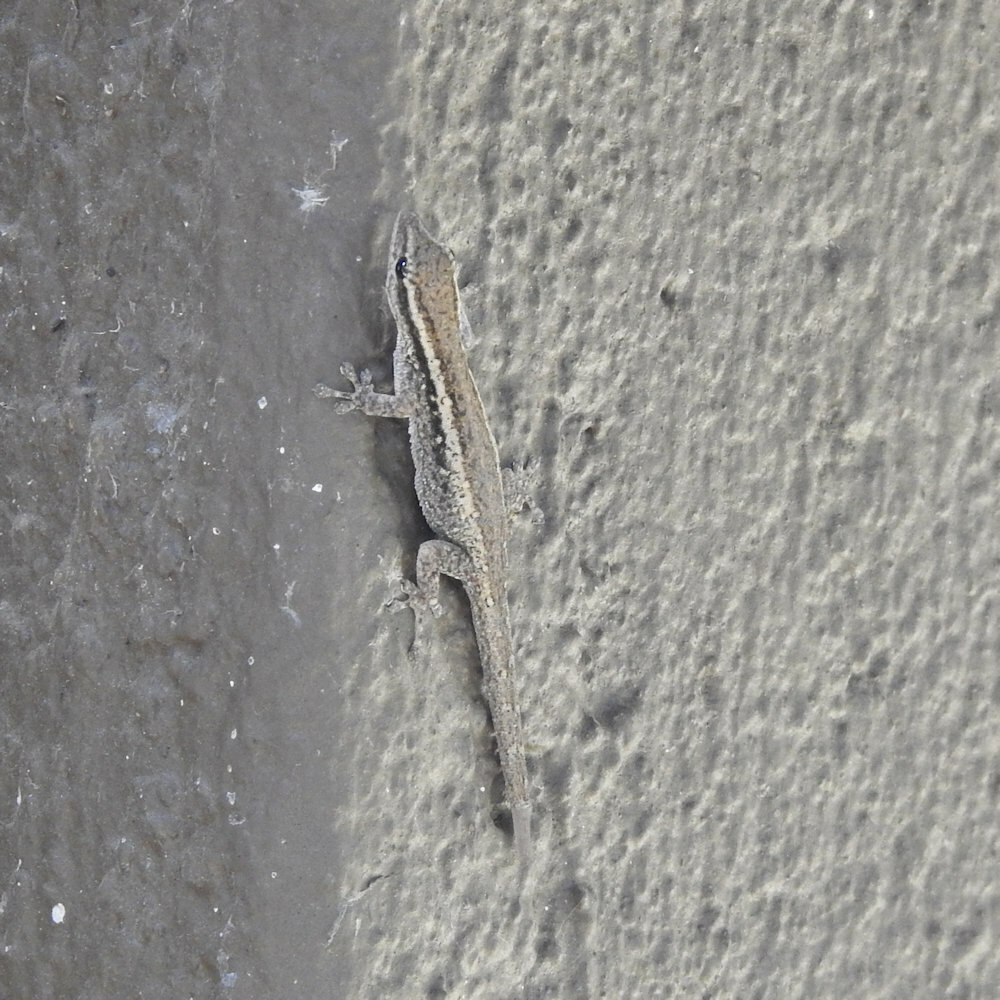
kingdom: Animalia
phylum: Chordata
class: Squamata
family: Gekkonidae
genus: Lygodactylus
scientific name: Lygodactylus capensis
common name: Cape dwarf gecko
